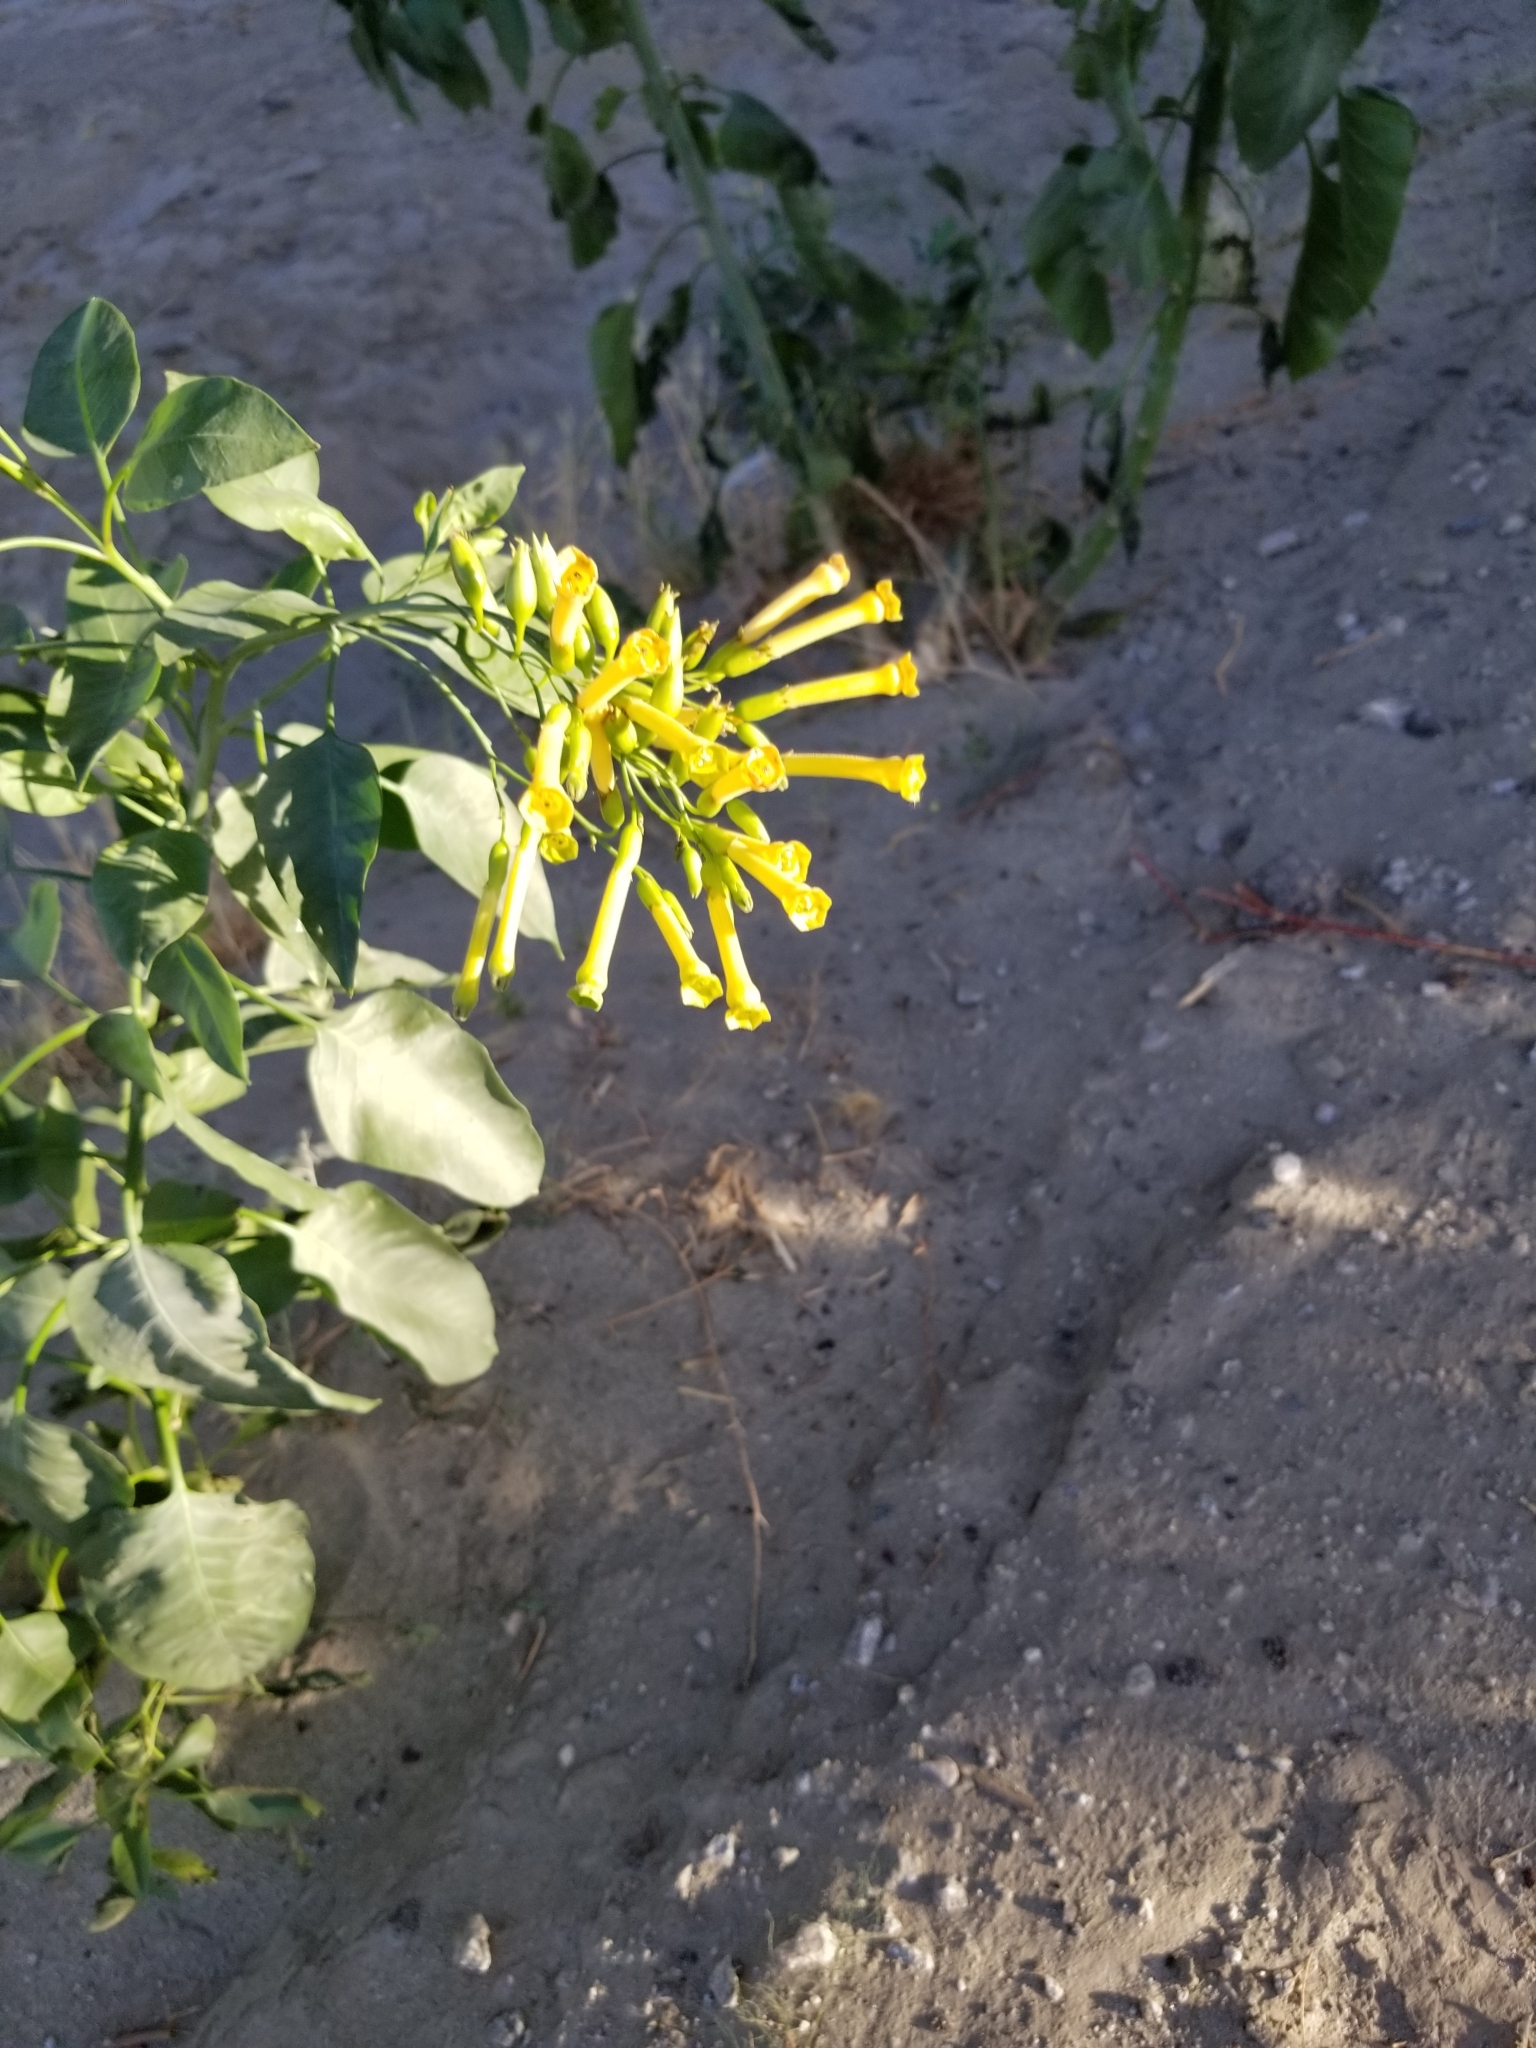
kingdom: Plantae
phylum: Tracheophyta
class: Magnoliopsida
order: Solanales
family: Solanaceae
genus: Nicotiana
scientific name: Nicotiana glauca
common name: Tree tobacco
